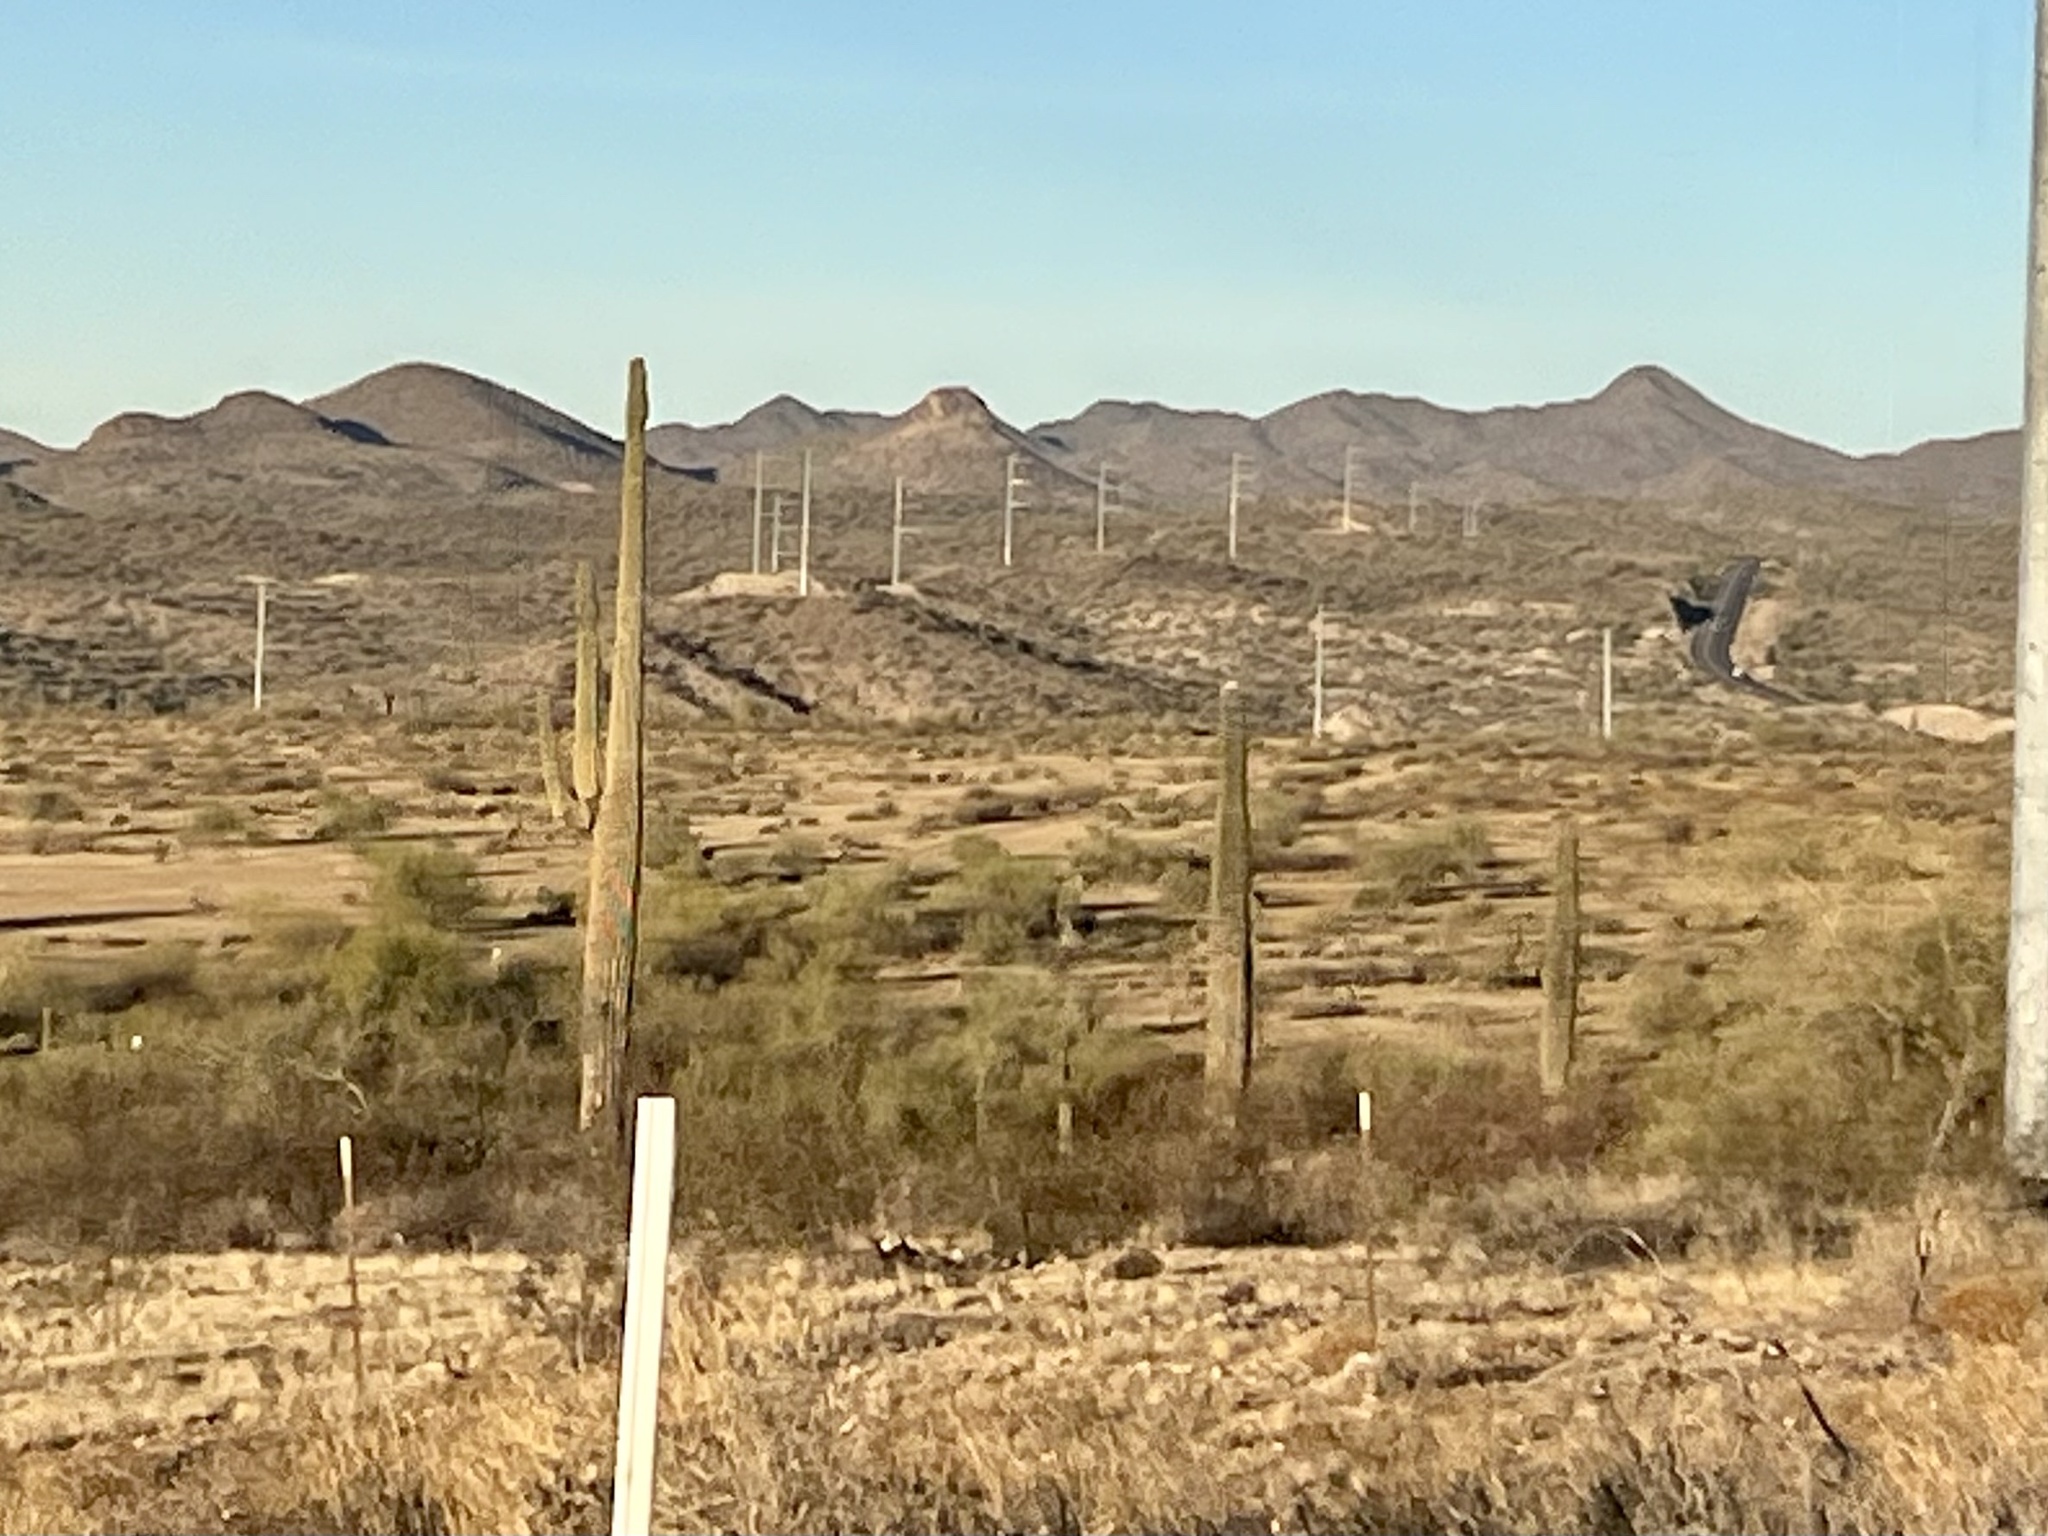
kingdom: Plantae
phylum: Tracheophyta
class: Magnoliopsida
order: Caryophyllales
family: Cactaceae
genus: Carnegiea
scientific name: Carnegiea gigantea
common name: Saguaro
